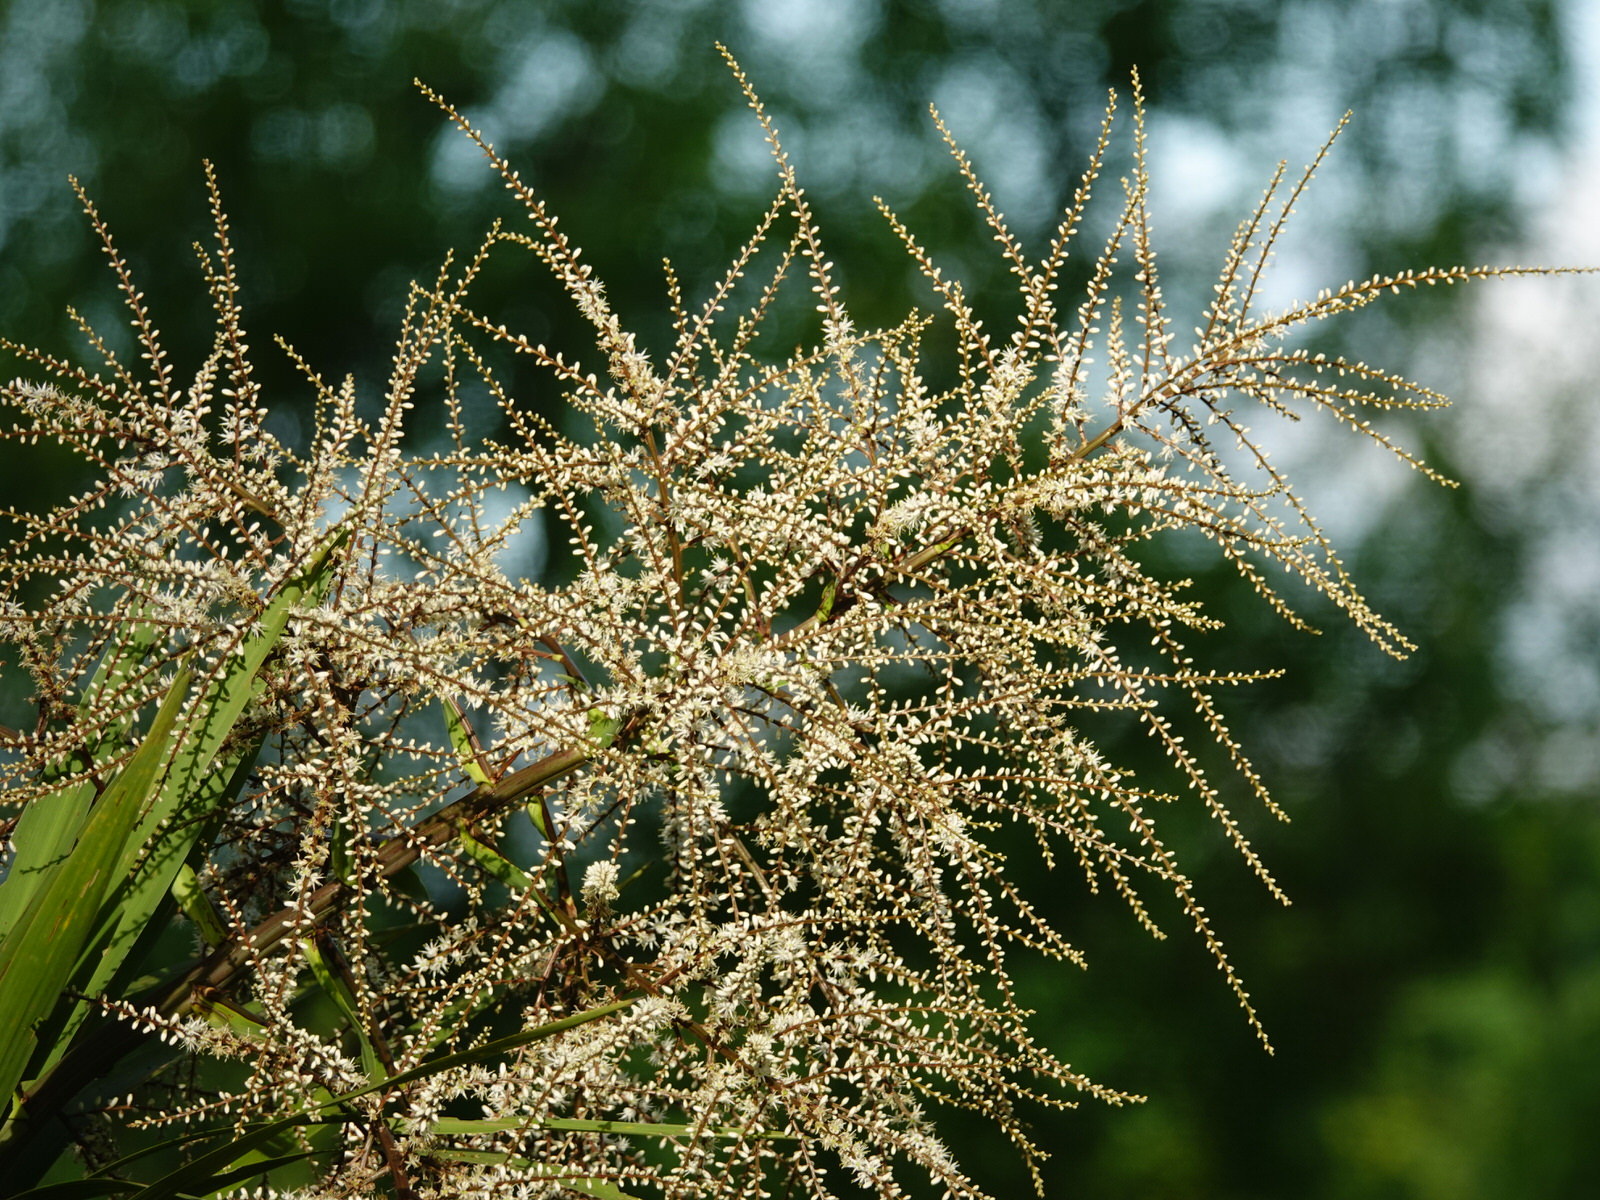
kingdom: Plantae
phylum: Tracheophyta
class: Liliopsida
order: Asparagales
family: Asparagaceae
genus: Cordyline
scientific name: Cordyline australis
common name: Cabbage-palm
